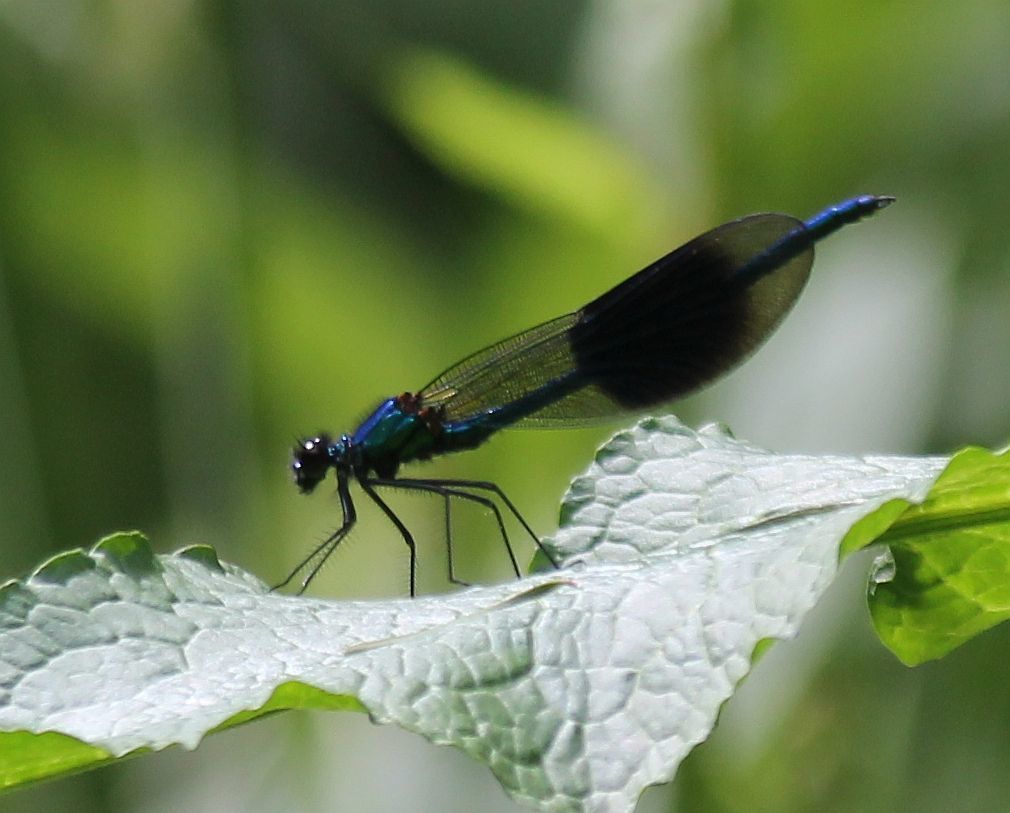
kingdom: Animalia
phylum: Arthropoda
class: Insecta
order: Odonata
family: Calopterygidae
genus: Calopteryx
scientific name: Calopteryx splendens
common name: Banded demoiselle
